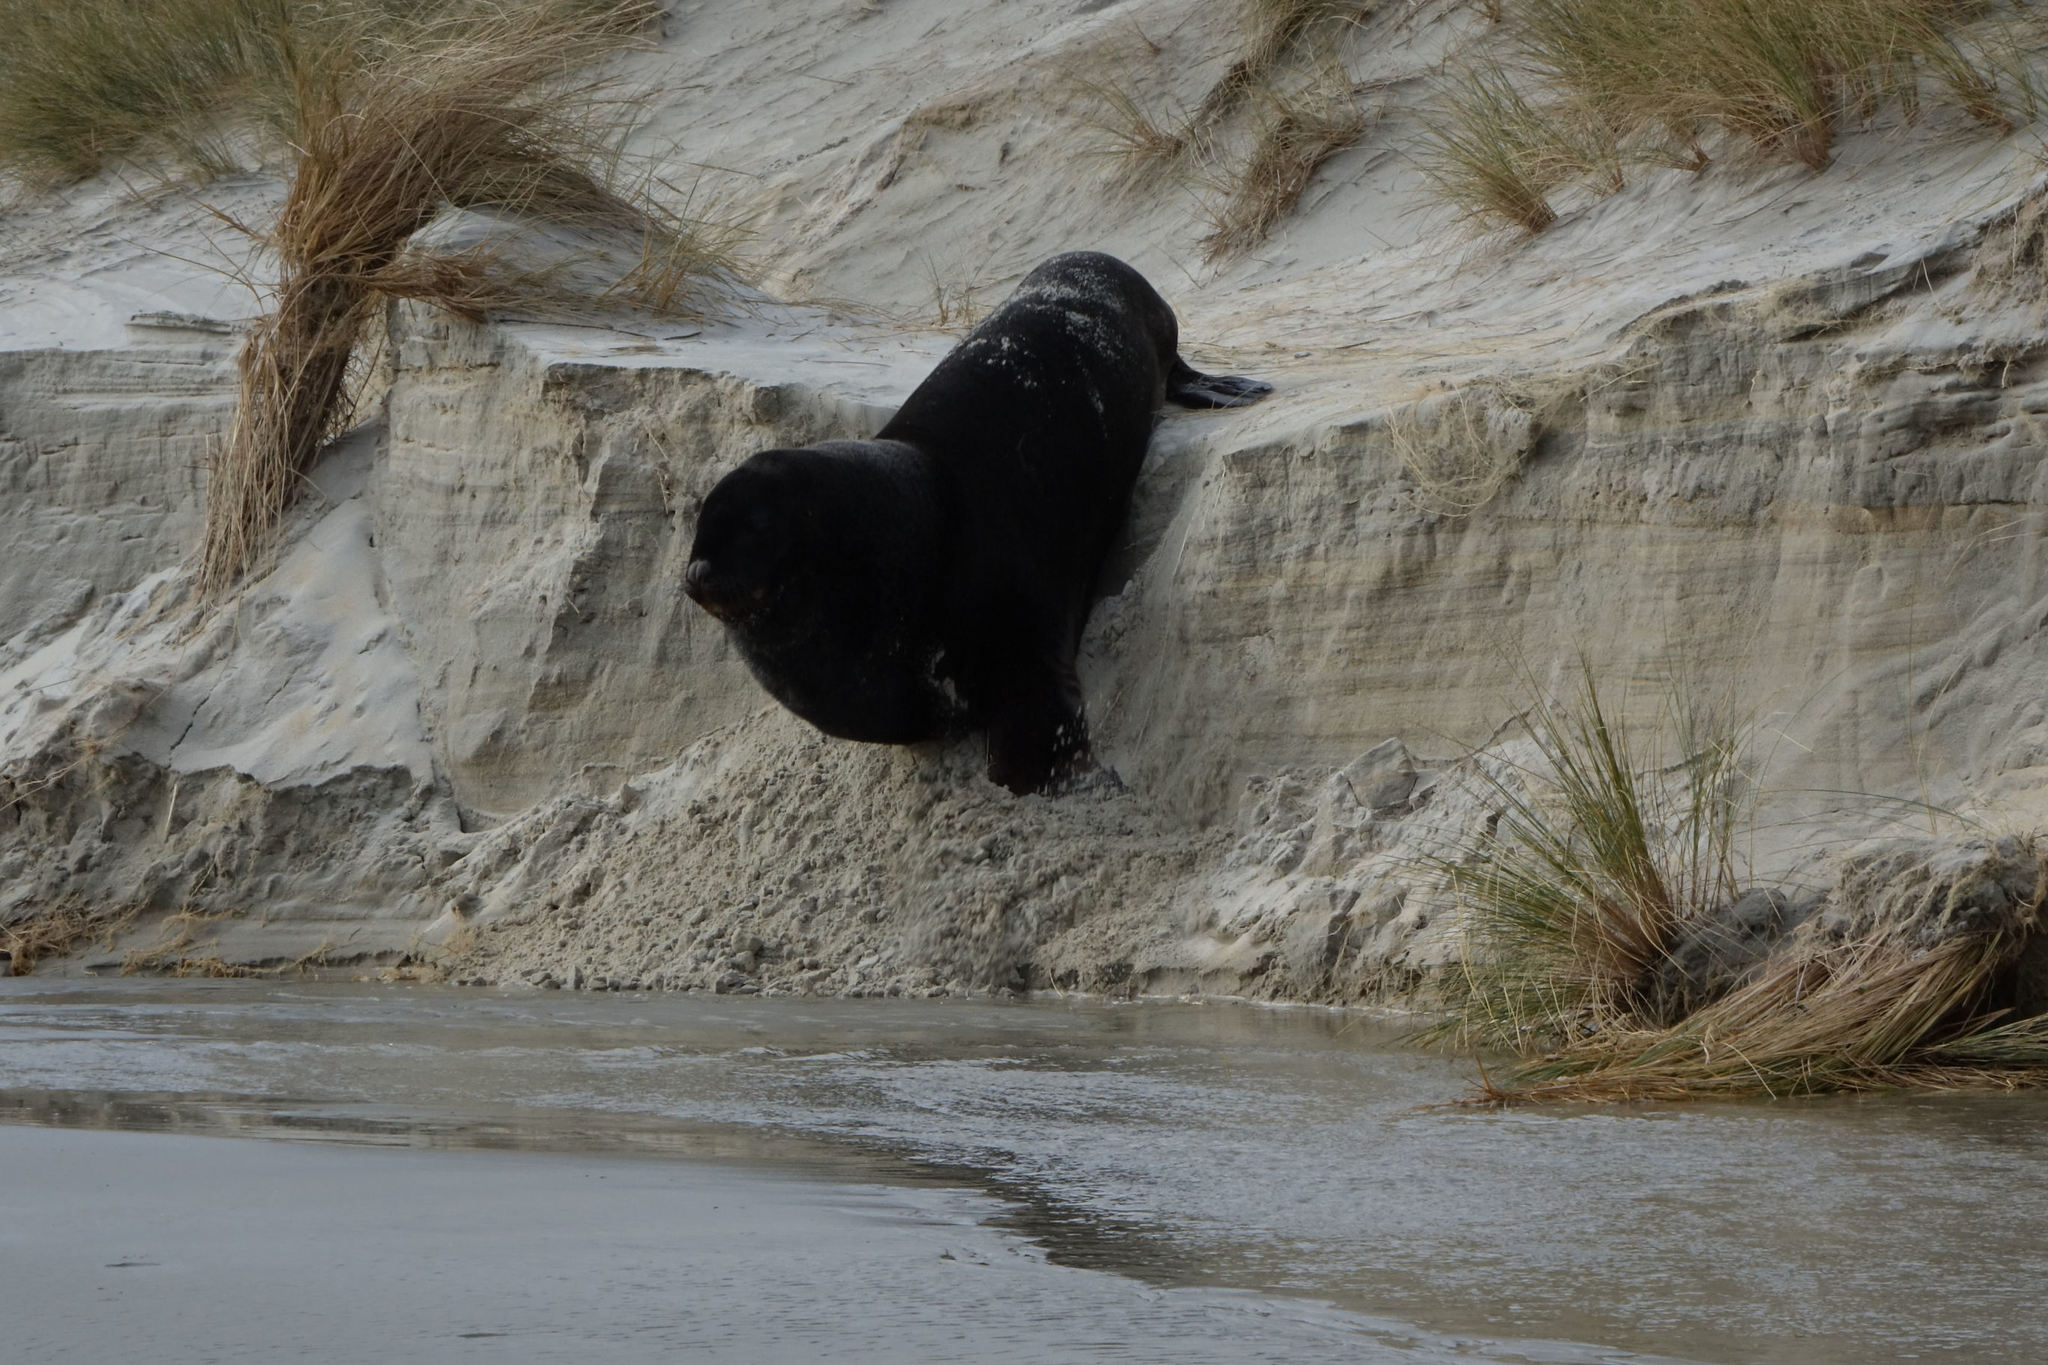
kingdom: Animalia
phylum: Chordata
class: Mammalia
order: Carnivora
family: Otariidae
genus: Phocarctos
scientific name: Phocarctos hookeri
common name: New zealand sea lion
